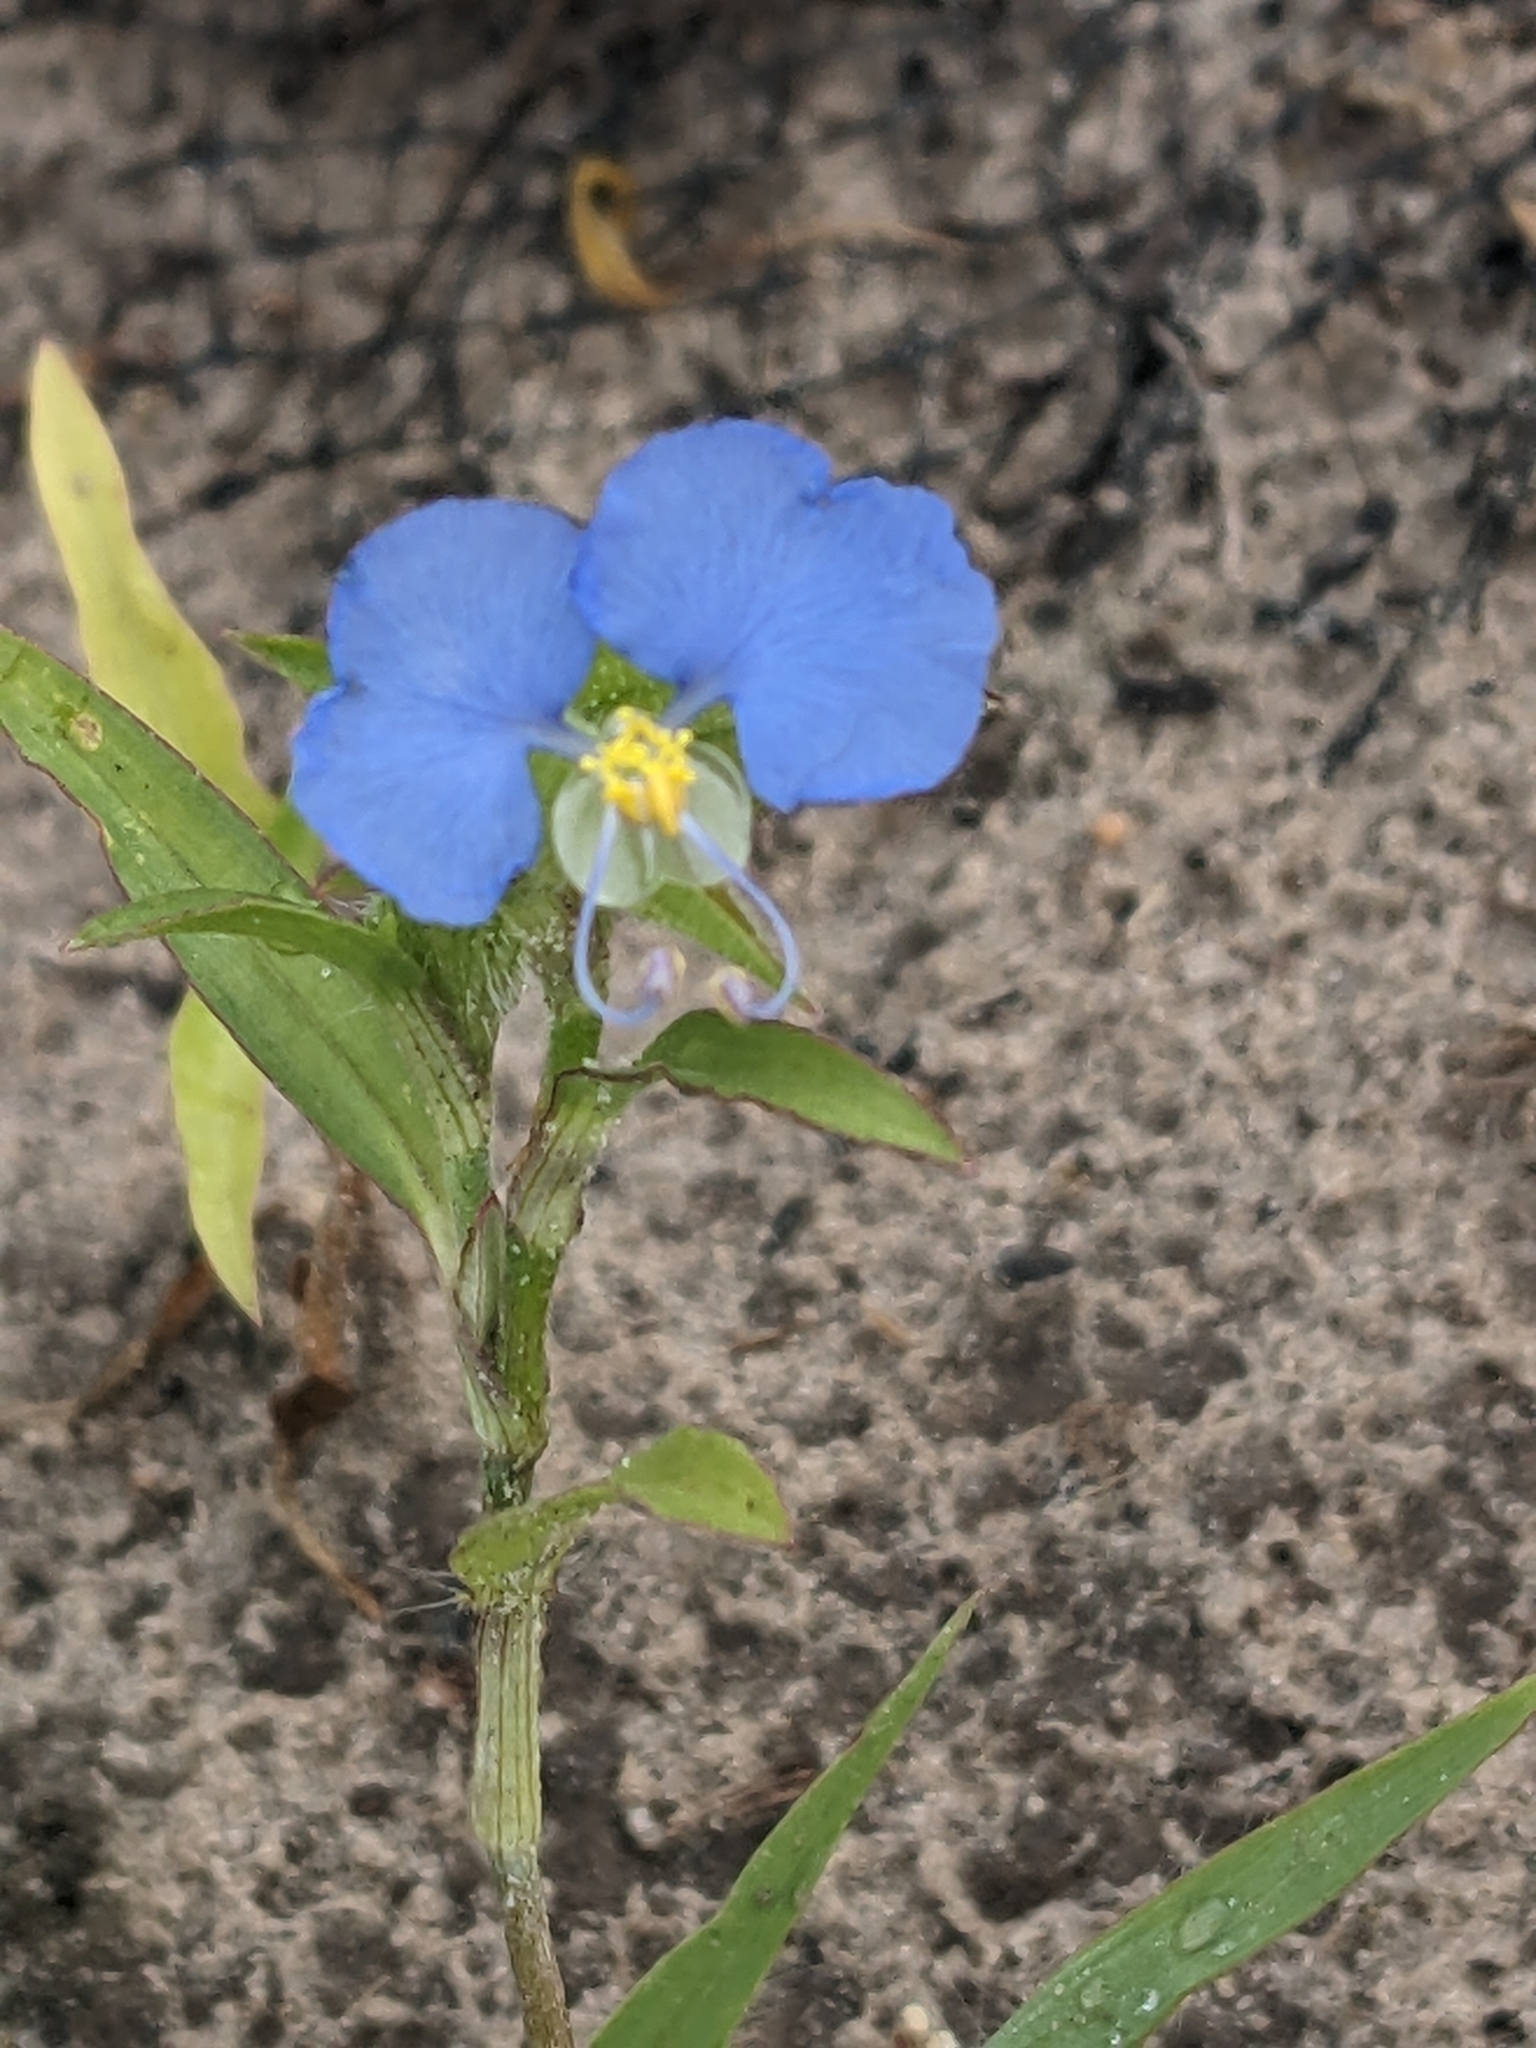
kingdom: Plantae
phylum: Tracheophyta
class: Liliopsida
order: Commelinales
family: Commelinaceae
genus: Commelina
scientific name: Commelina erecta
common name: Blousel blommetjie
